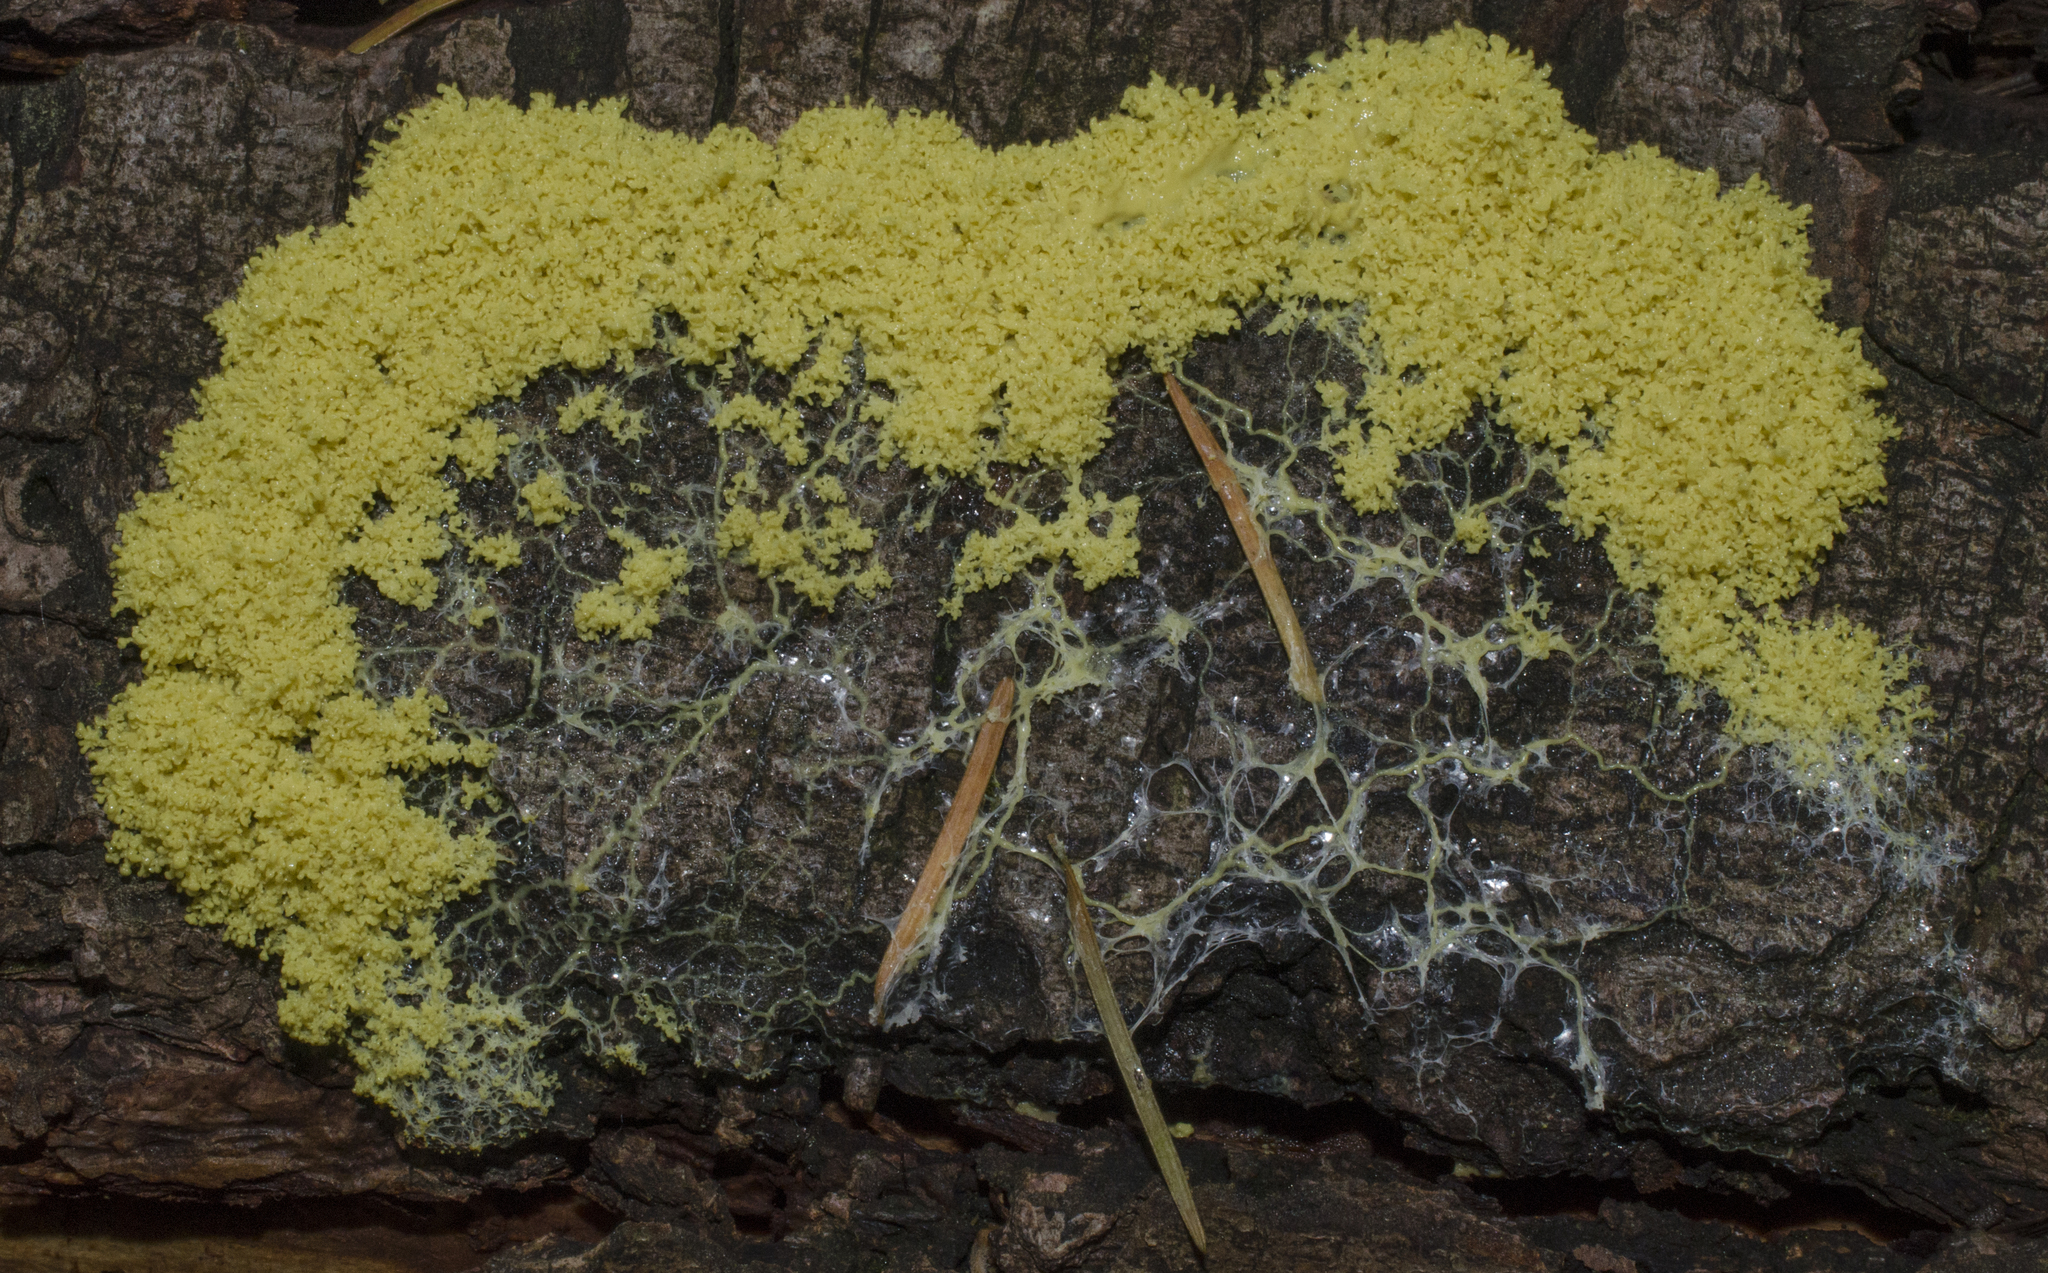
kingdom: Protozoa
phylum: Mycetozoa
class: Myxomycetes
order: Physarales
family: Physaraceae
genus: Fuligo
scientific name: Fuligo septica
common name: Dog vomit slime mold
